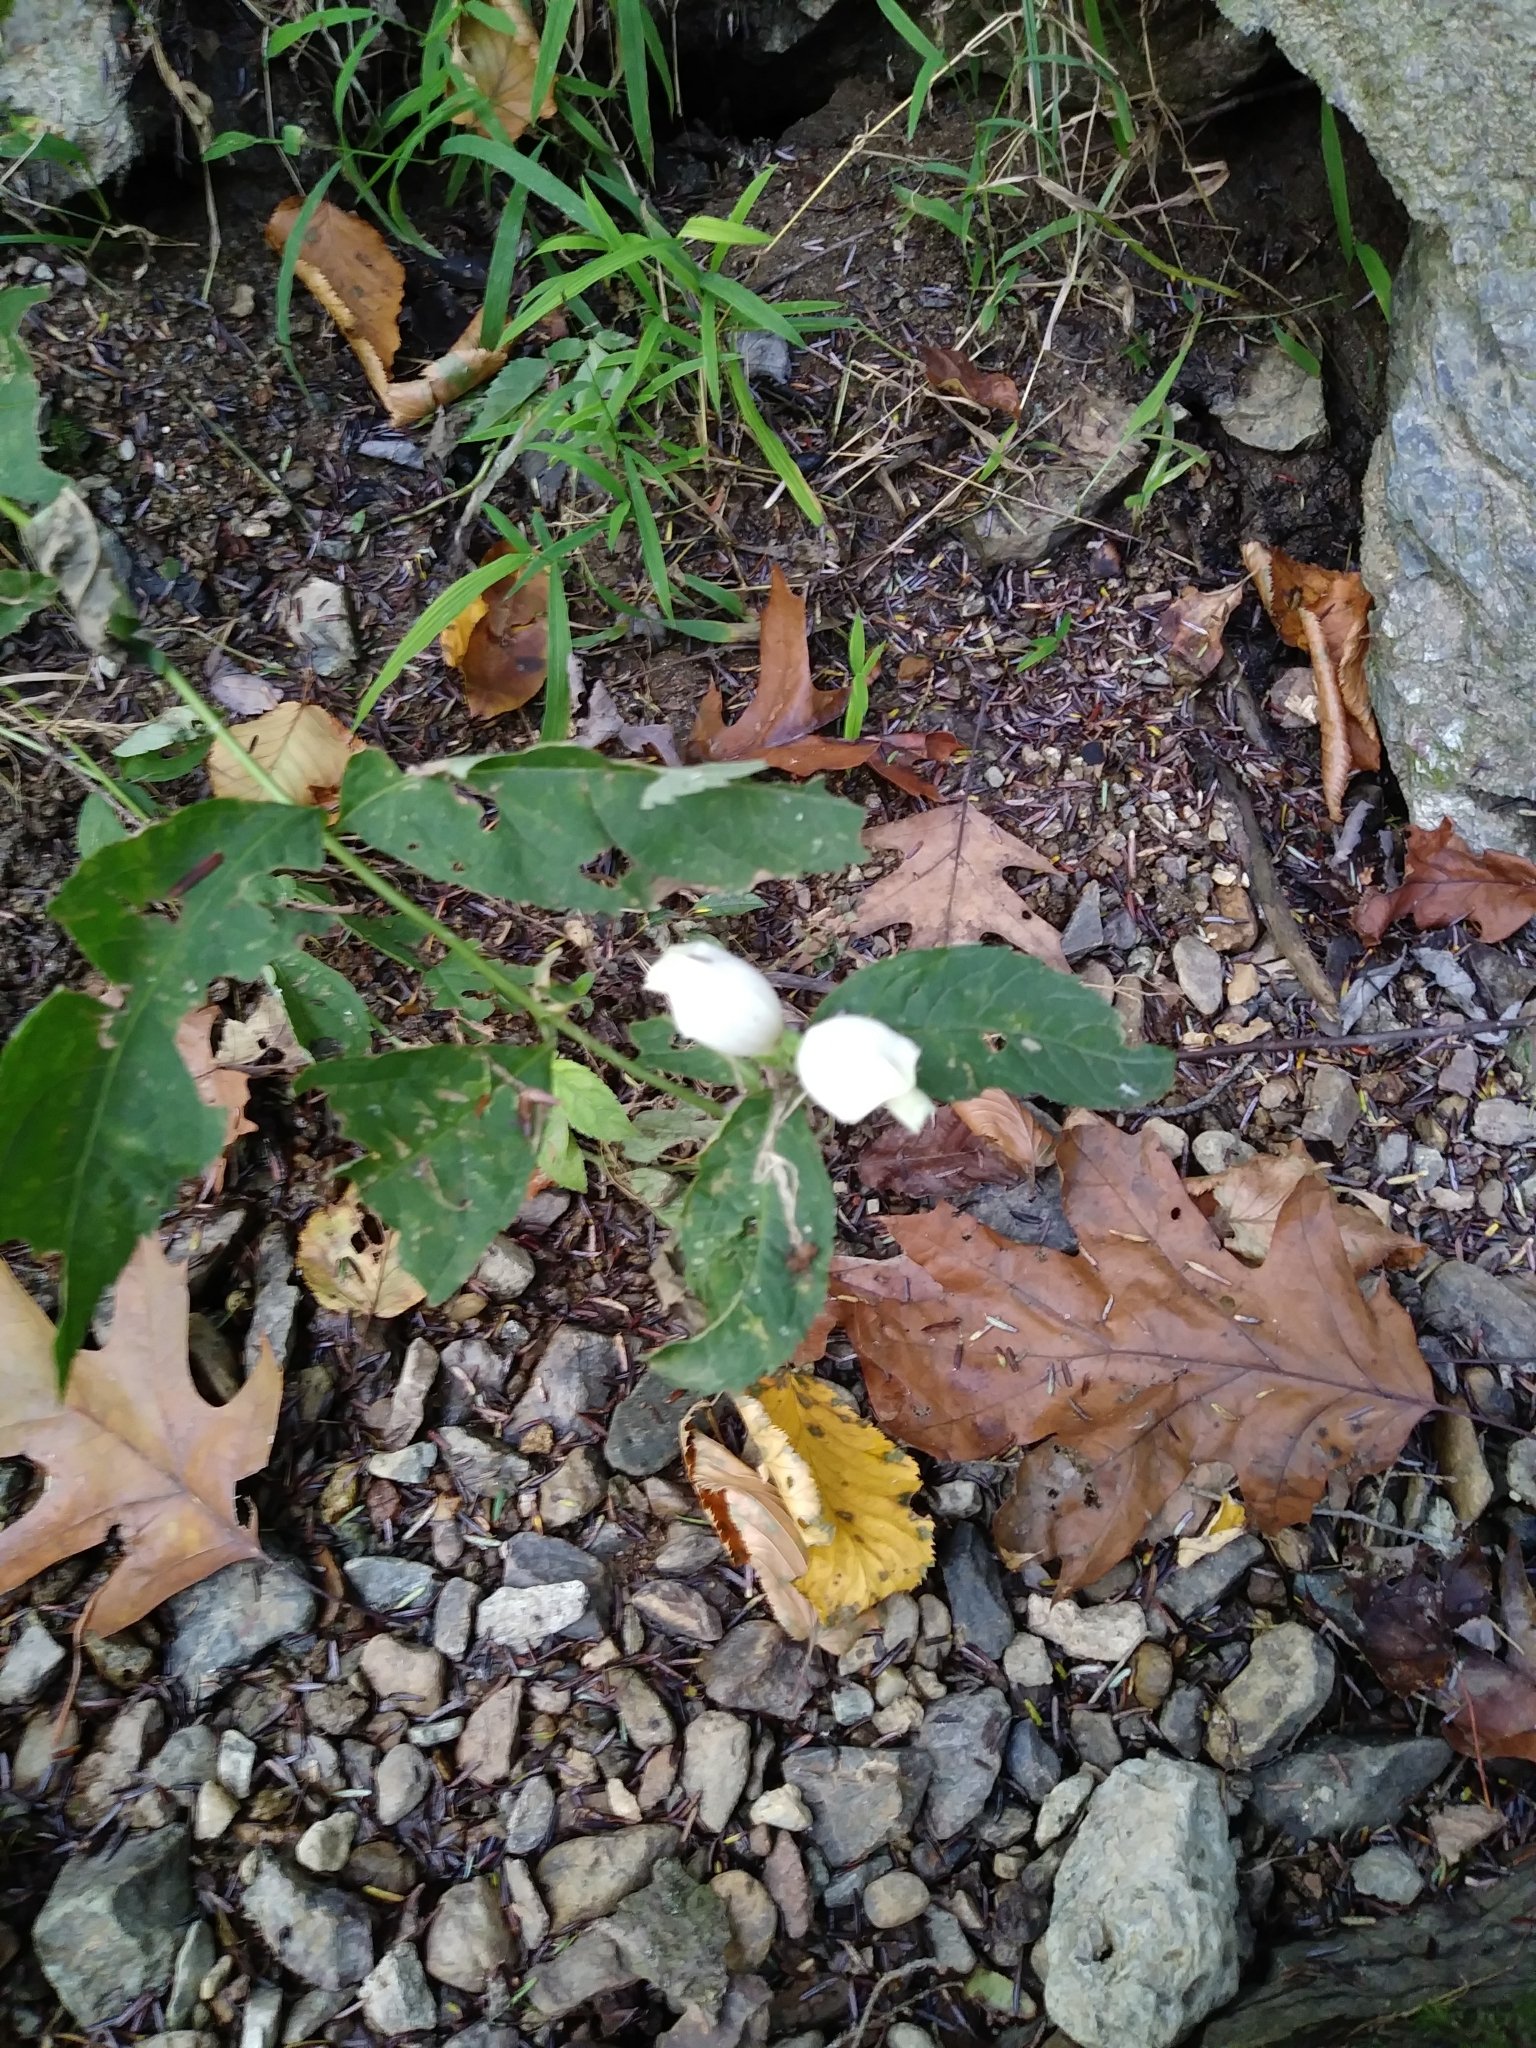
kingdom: Plantae
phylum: Tracheophyta
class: Magnoliopsida
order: Lamiales
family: Plantaginaceae
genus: Chelone
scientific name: Chelone glabra
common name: Snakehead
